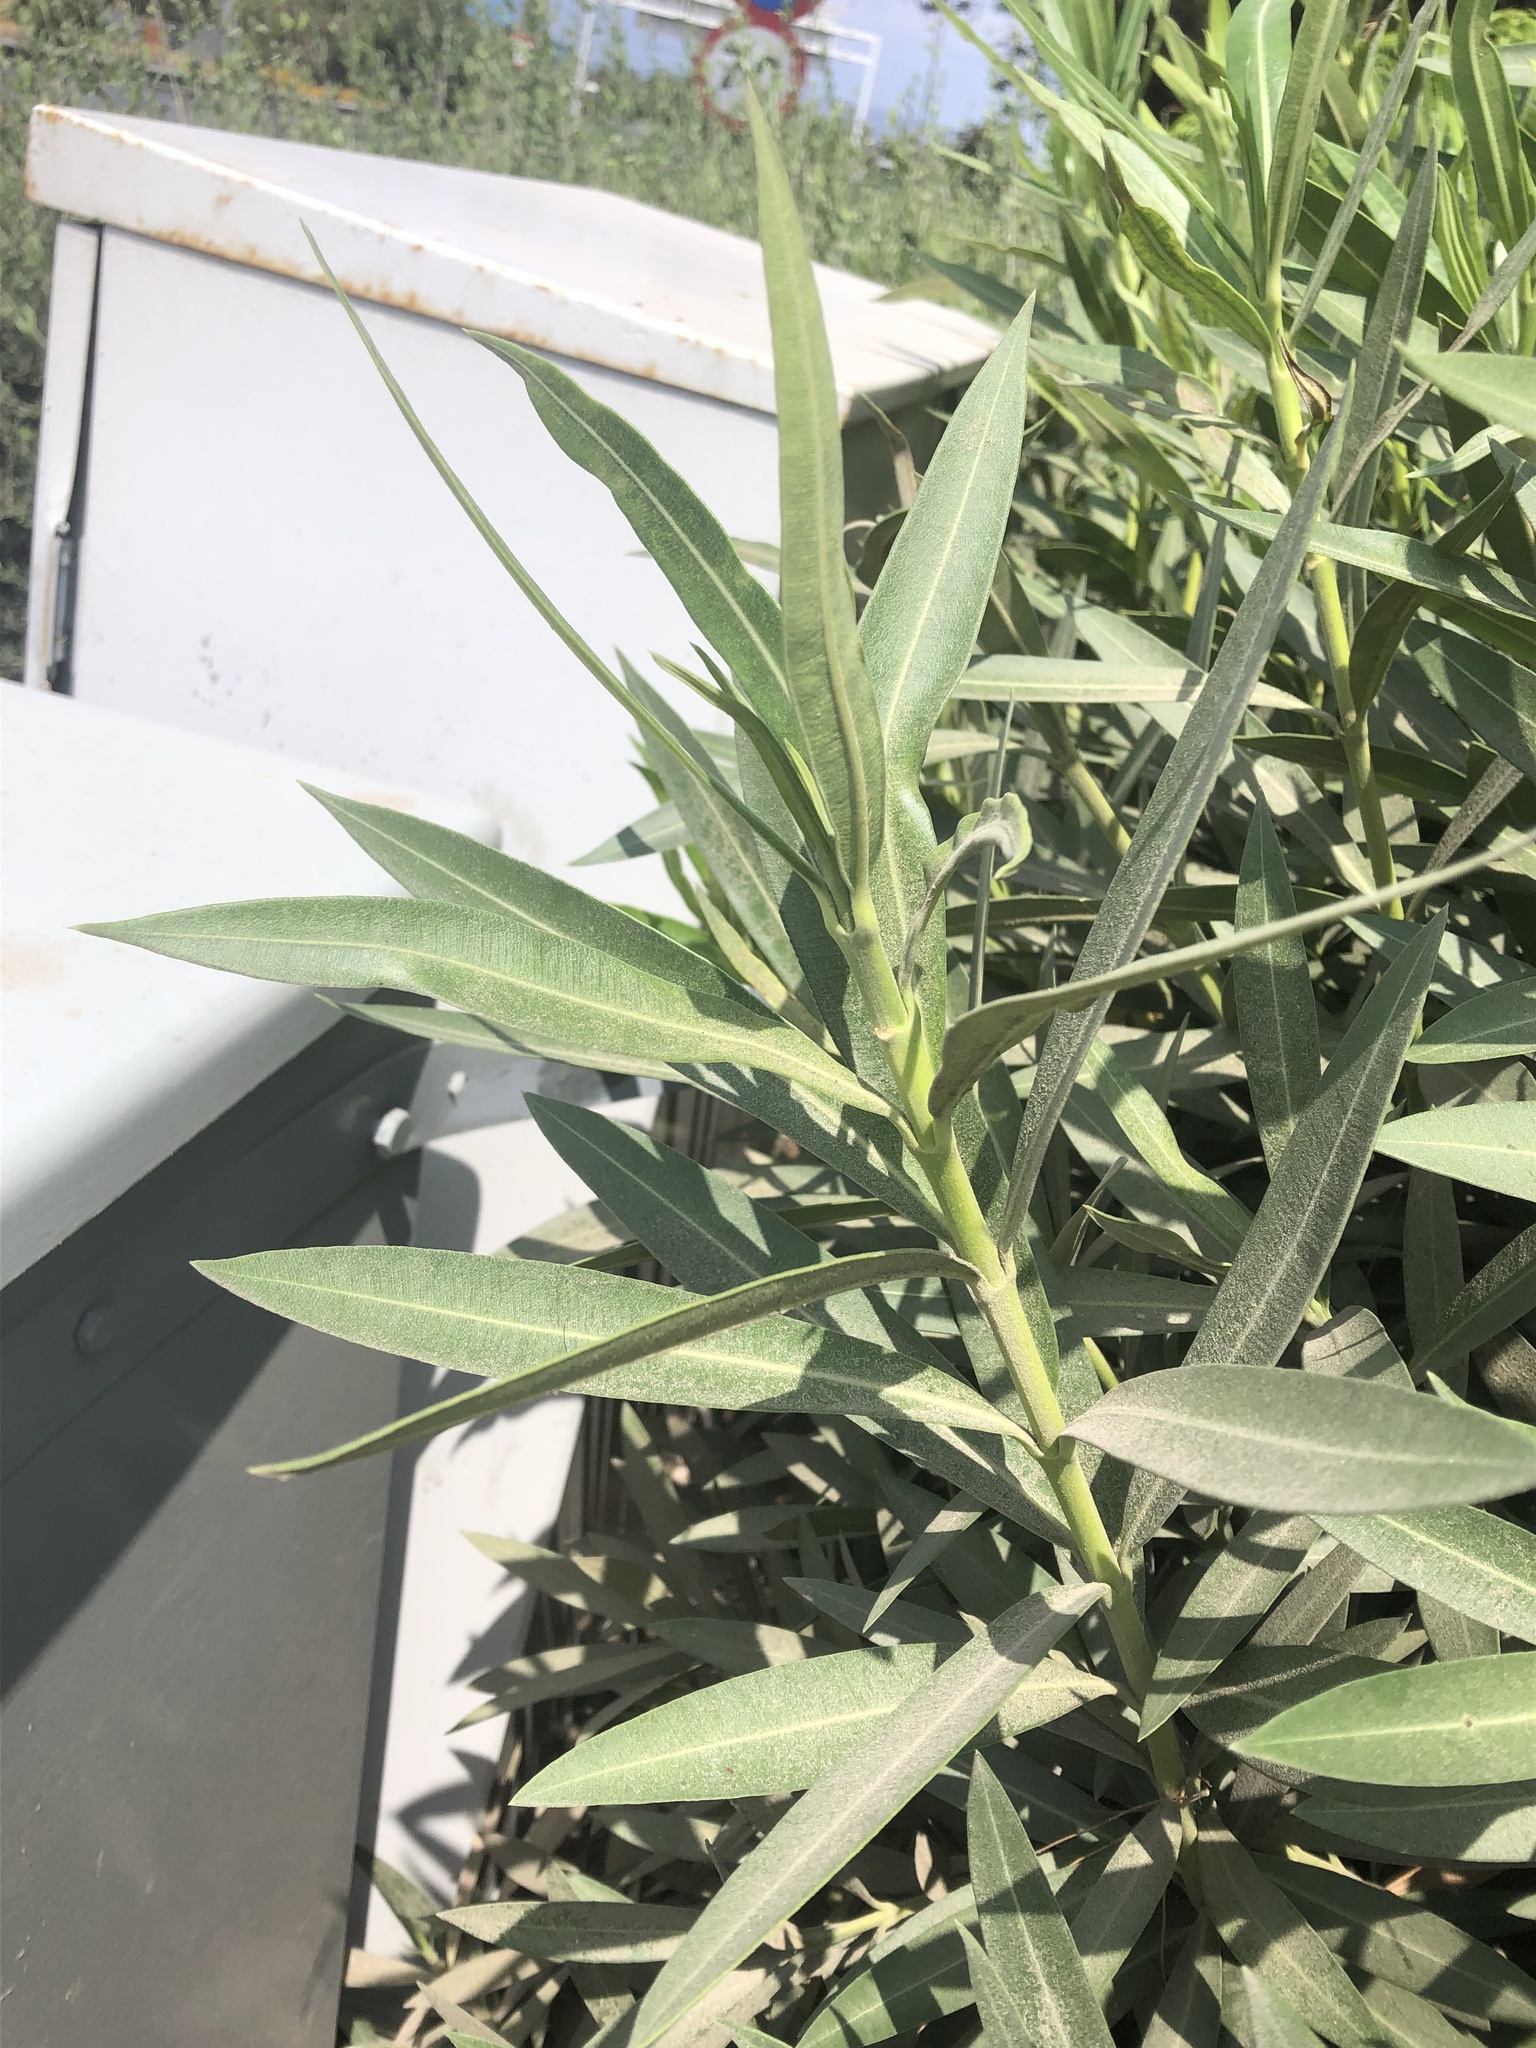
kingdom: Plantae
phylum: Tracheophyta
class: Magnoliopsida
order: Gentianales
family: Apocynaceae
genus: Nerium
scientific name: Nerium oleander
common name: Oleander
